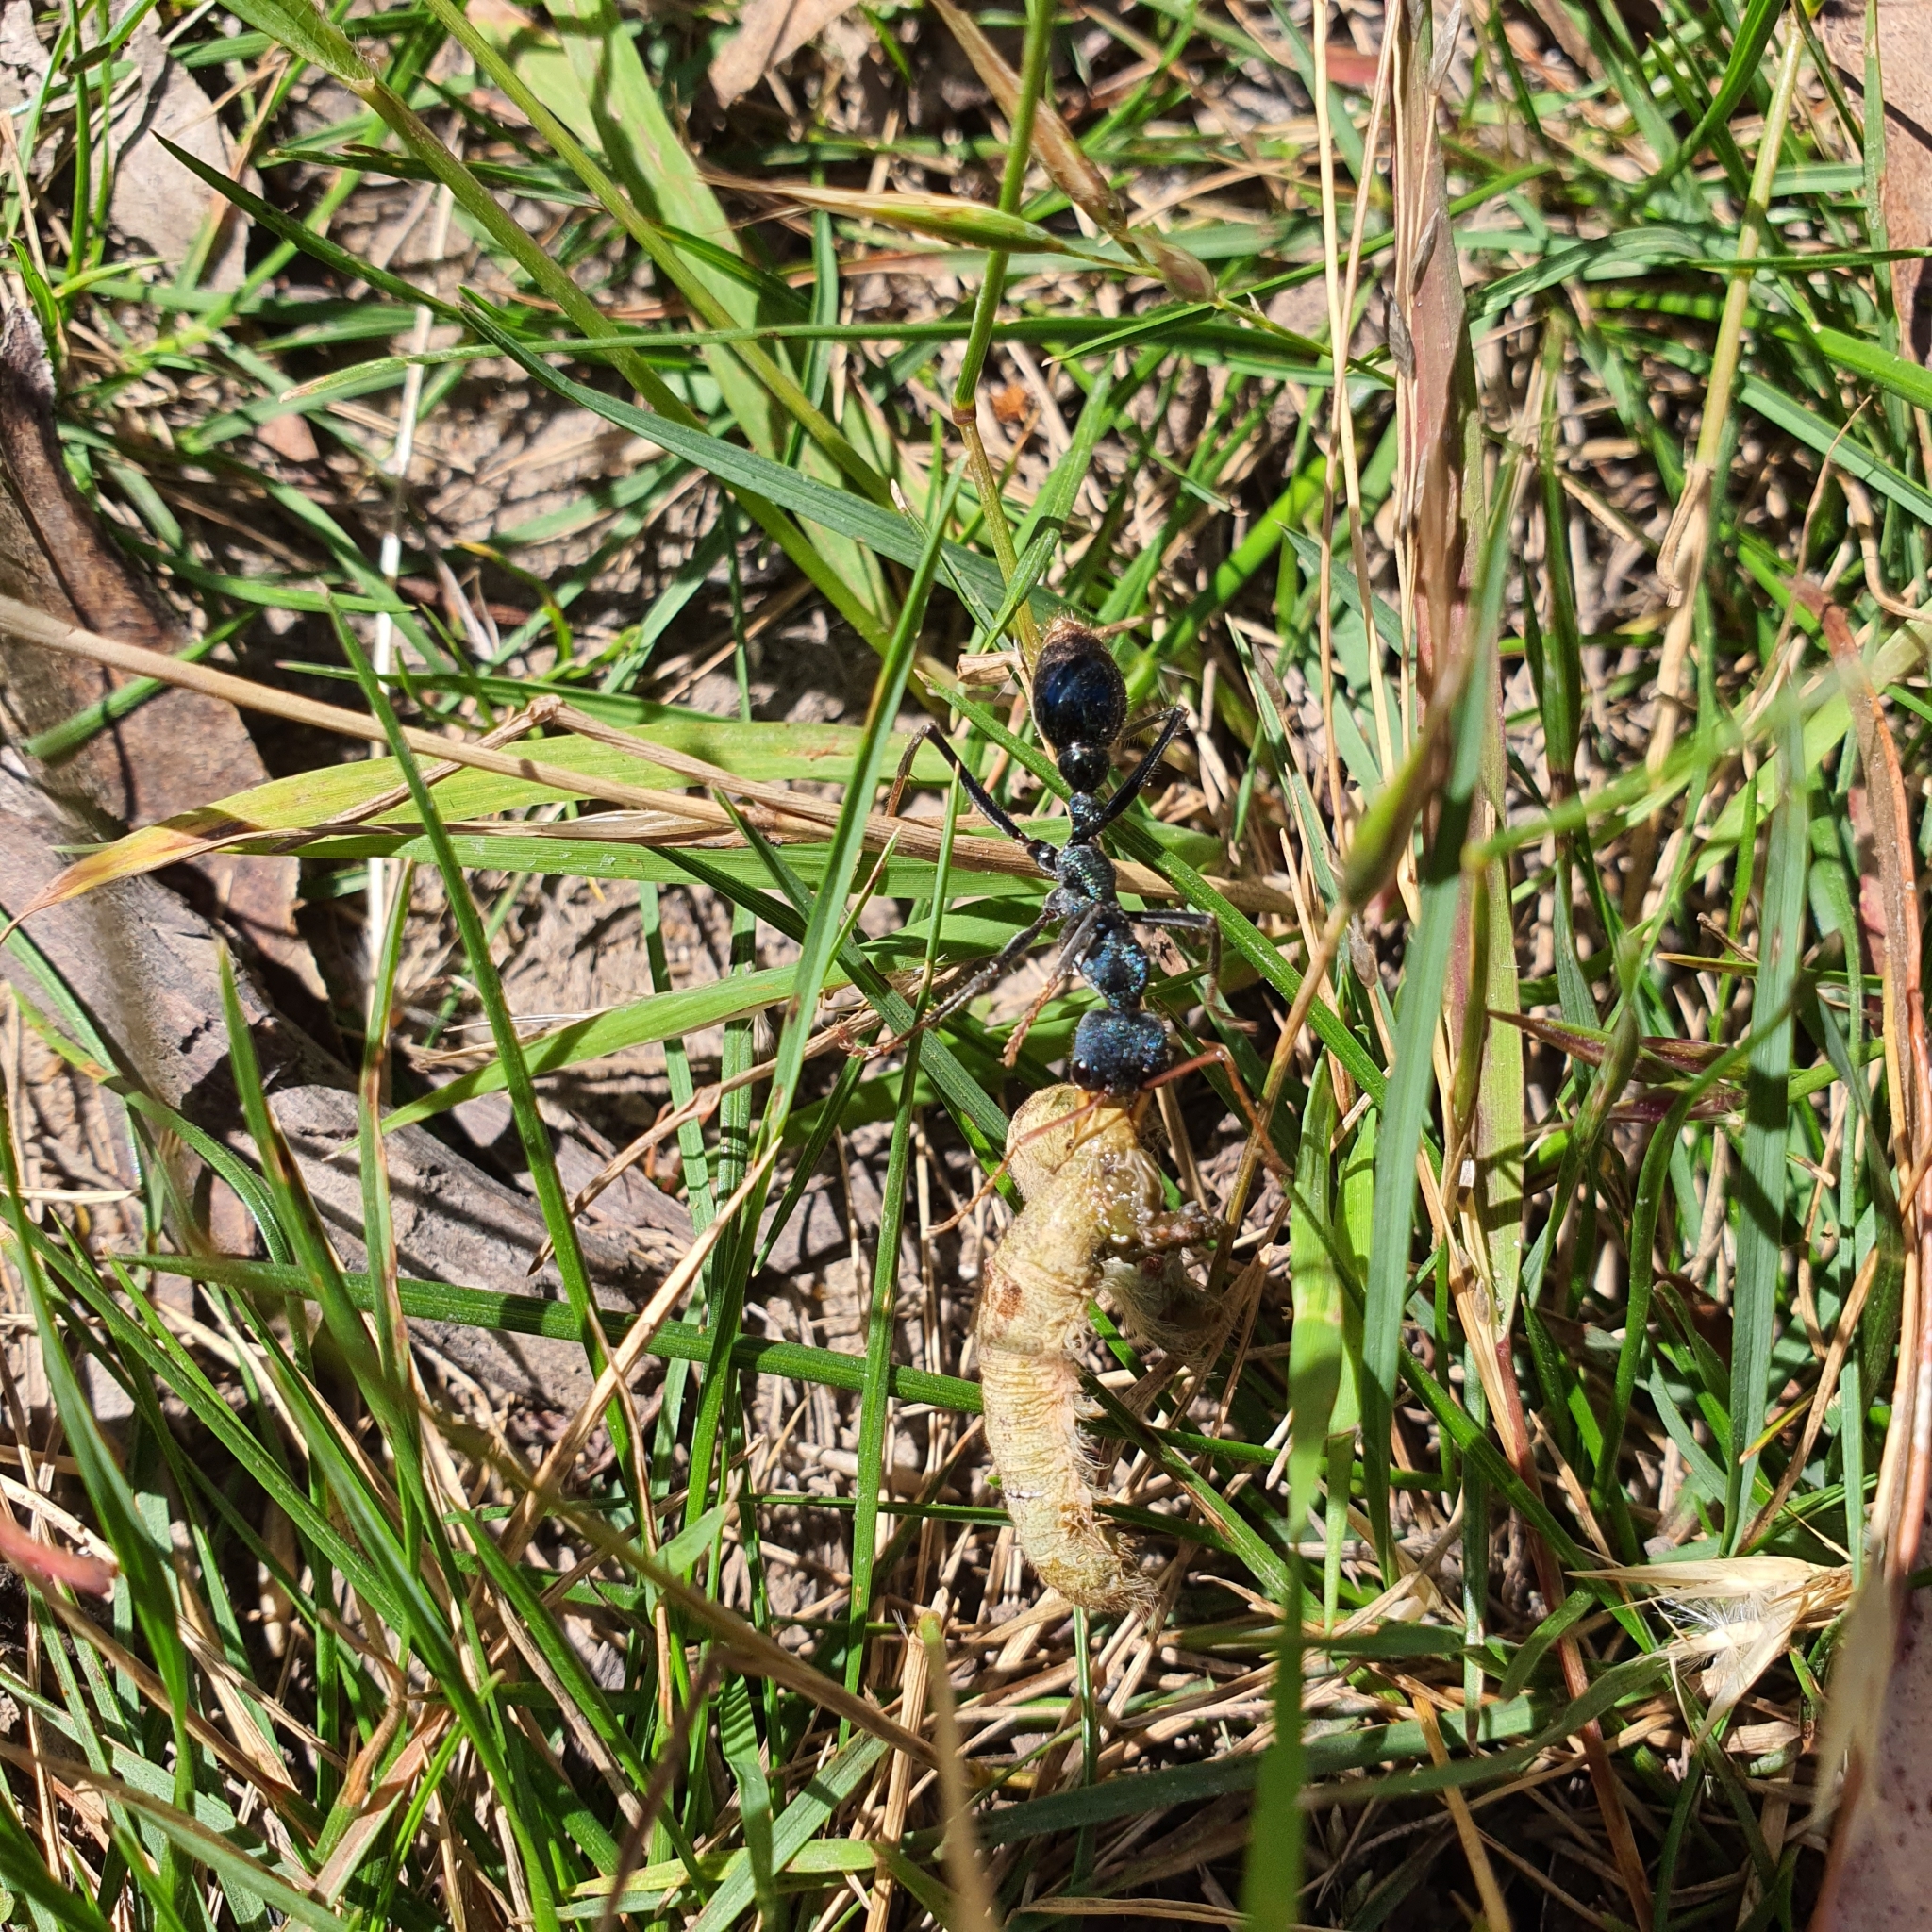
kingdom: Animalia
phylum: Arthropoda
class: Insecta
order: Hymenoptera
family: Formicidae
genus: Myrmecia
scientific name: Myrmecia tarsata
